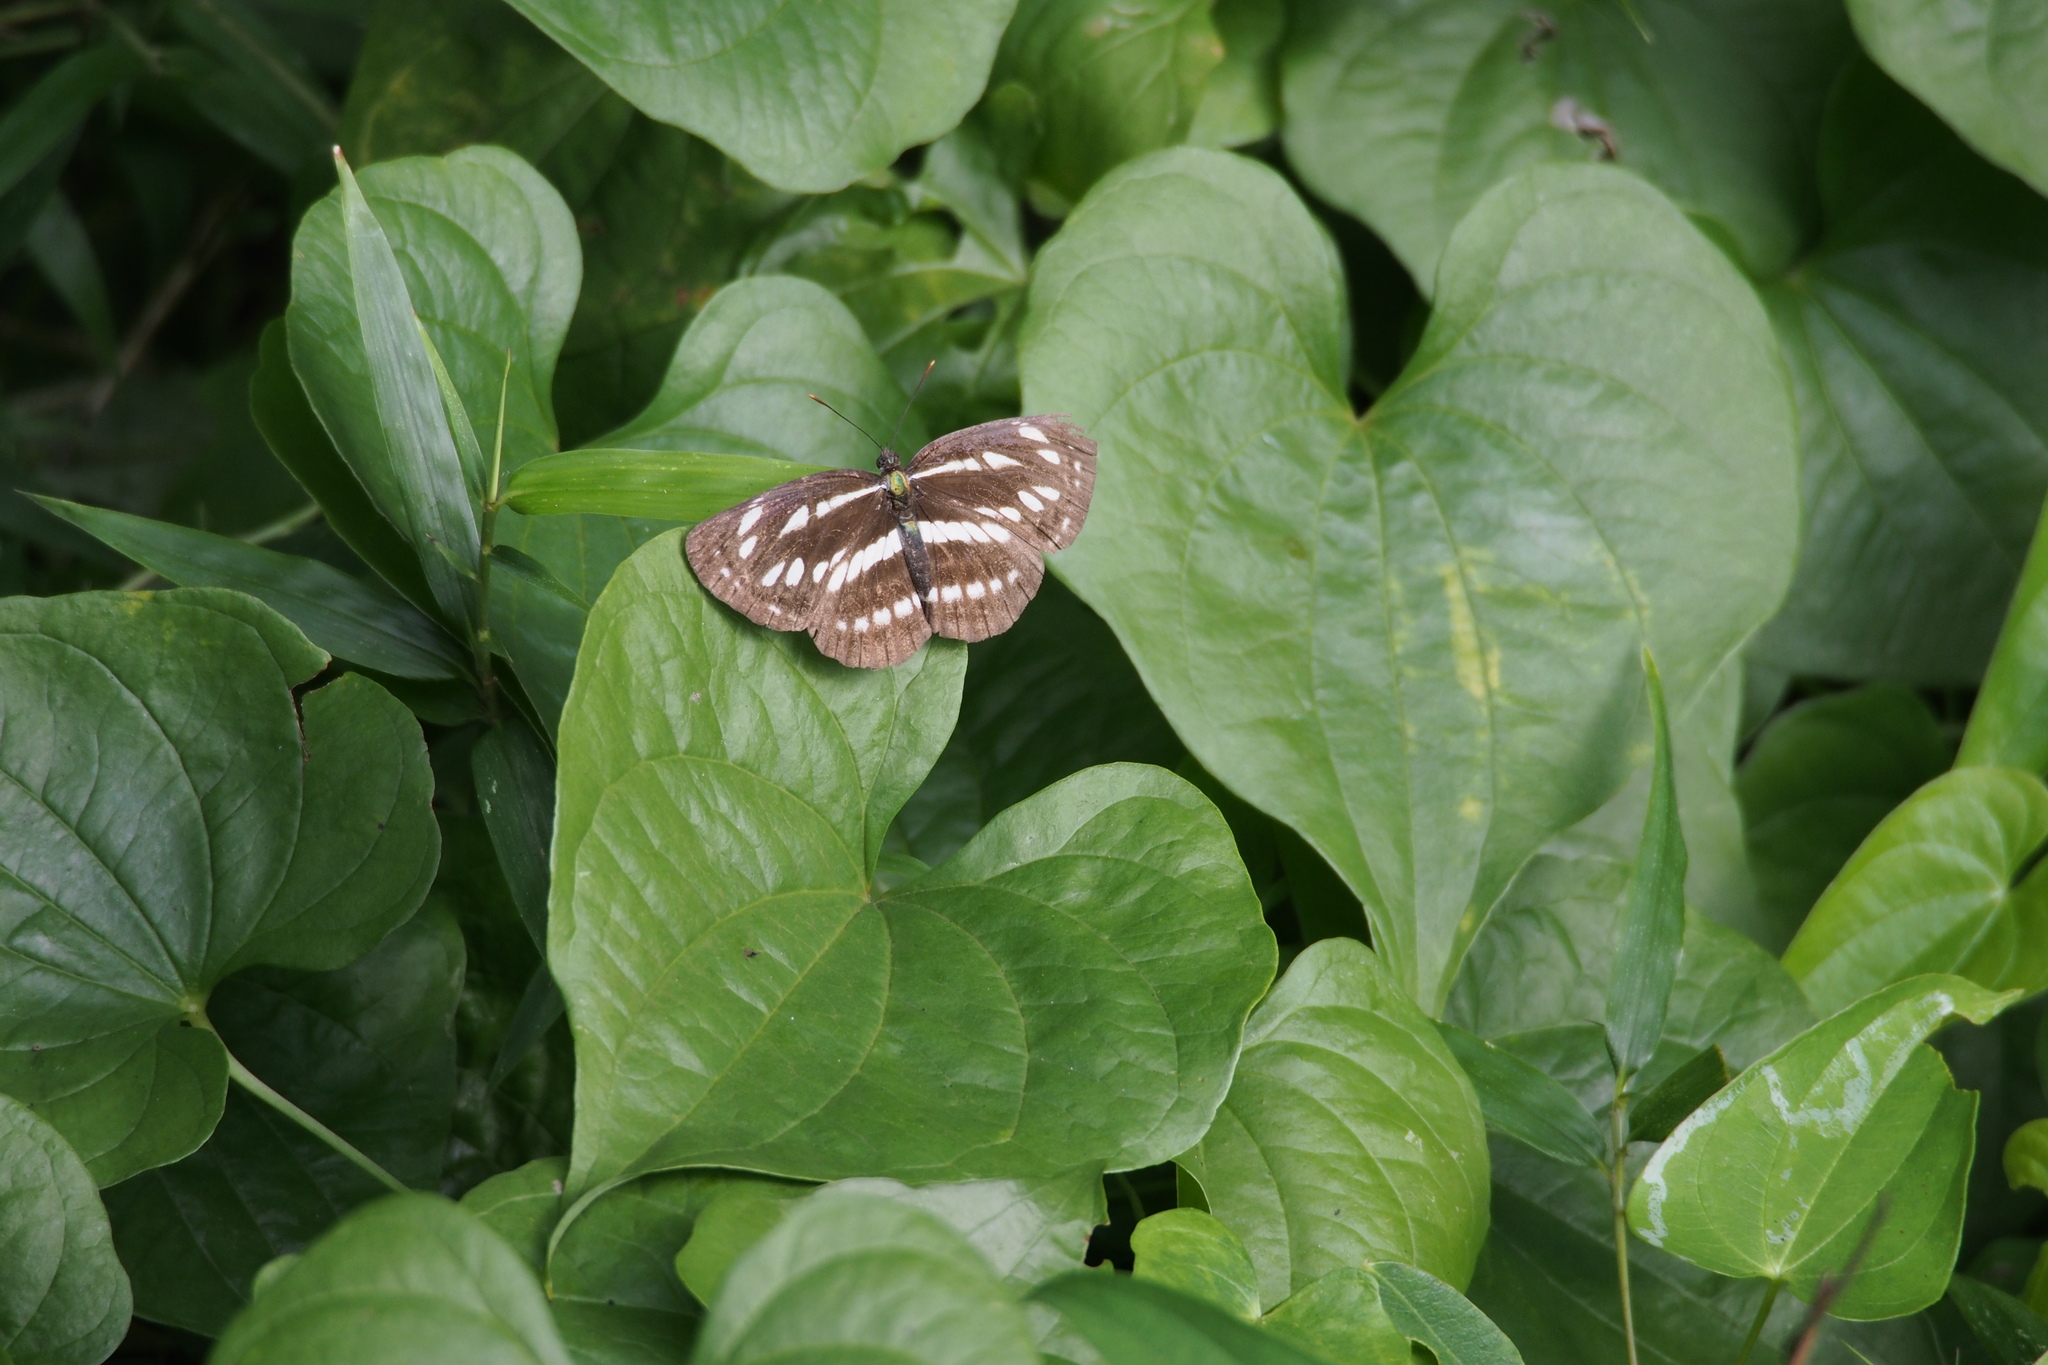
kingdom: Animalia
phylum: Arthropoda
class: Insecta
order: Lepidoptera
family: Nymphalidae
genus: Neptis
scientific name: Neptis sappho
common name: Common glider
